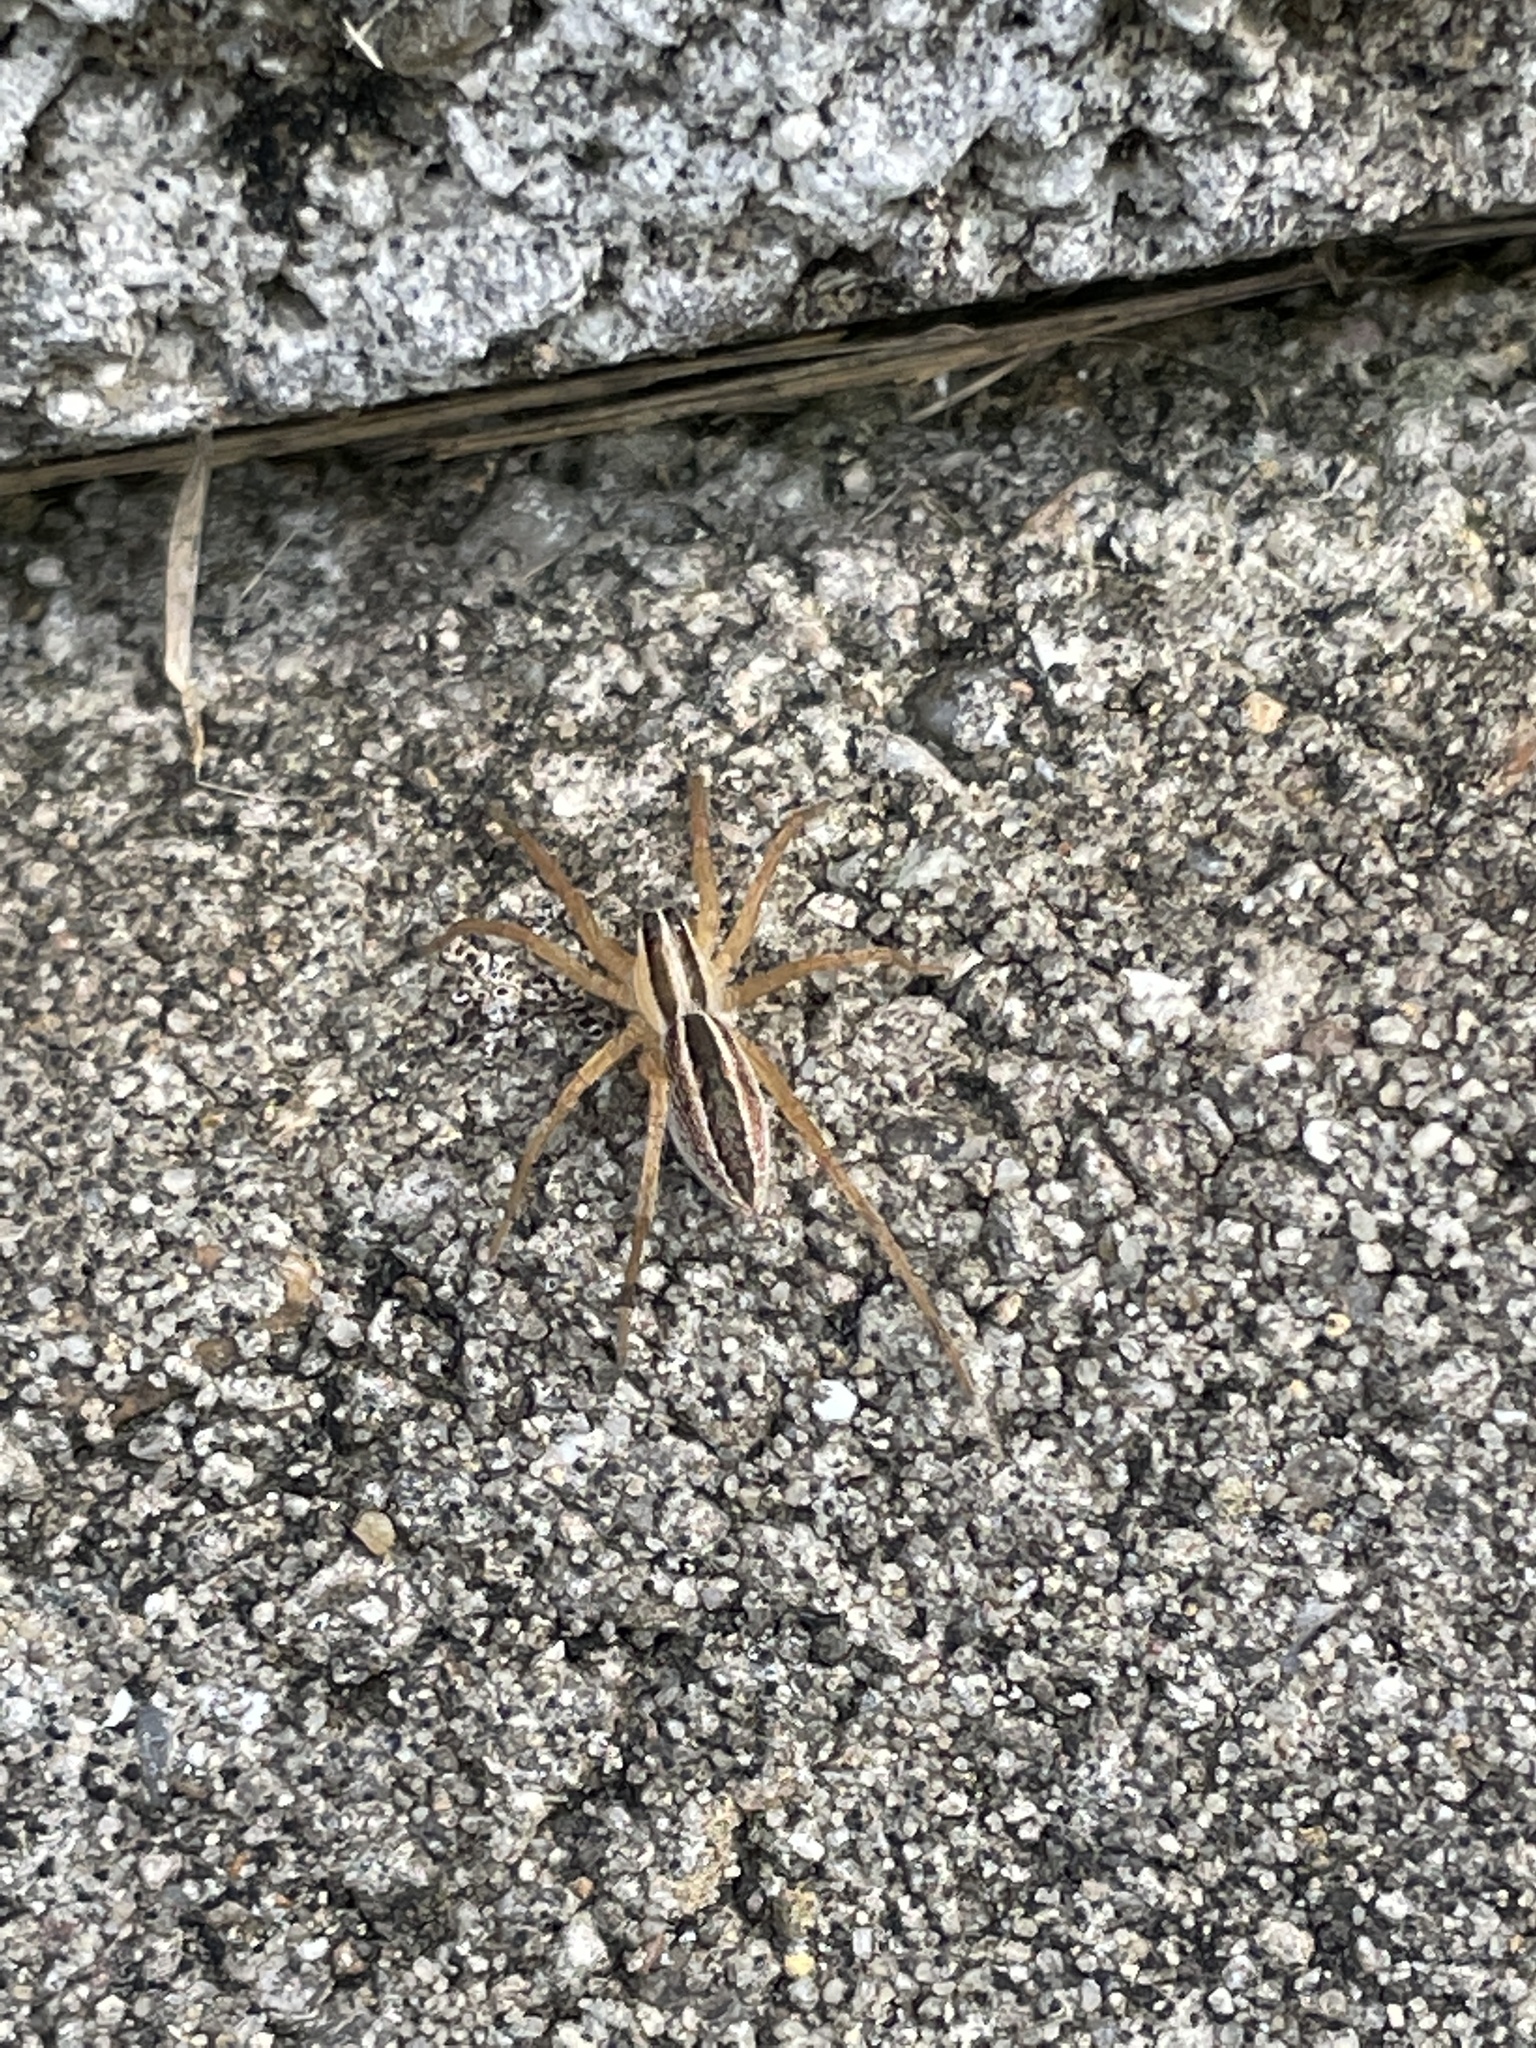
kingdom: Animalia
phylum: Arthropoda
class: Arachnida
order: Araneae
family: Lycosidae
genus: Rabidosa
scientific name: Rabidosa rabida
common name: Rabid wolf spider
